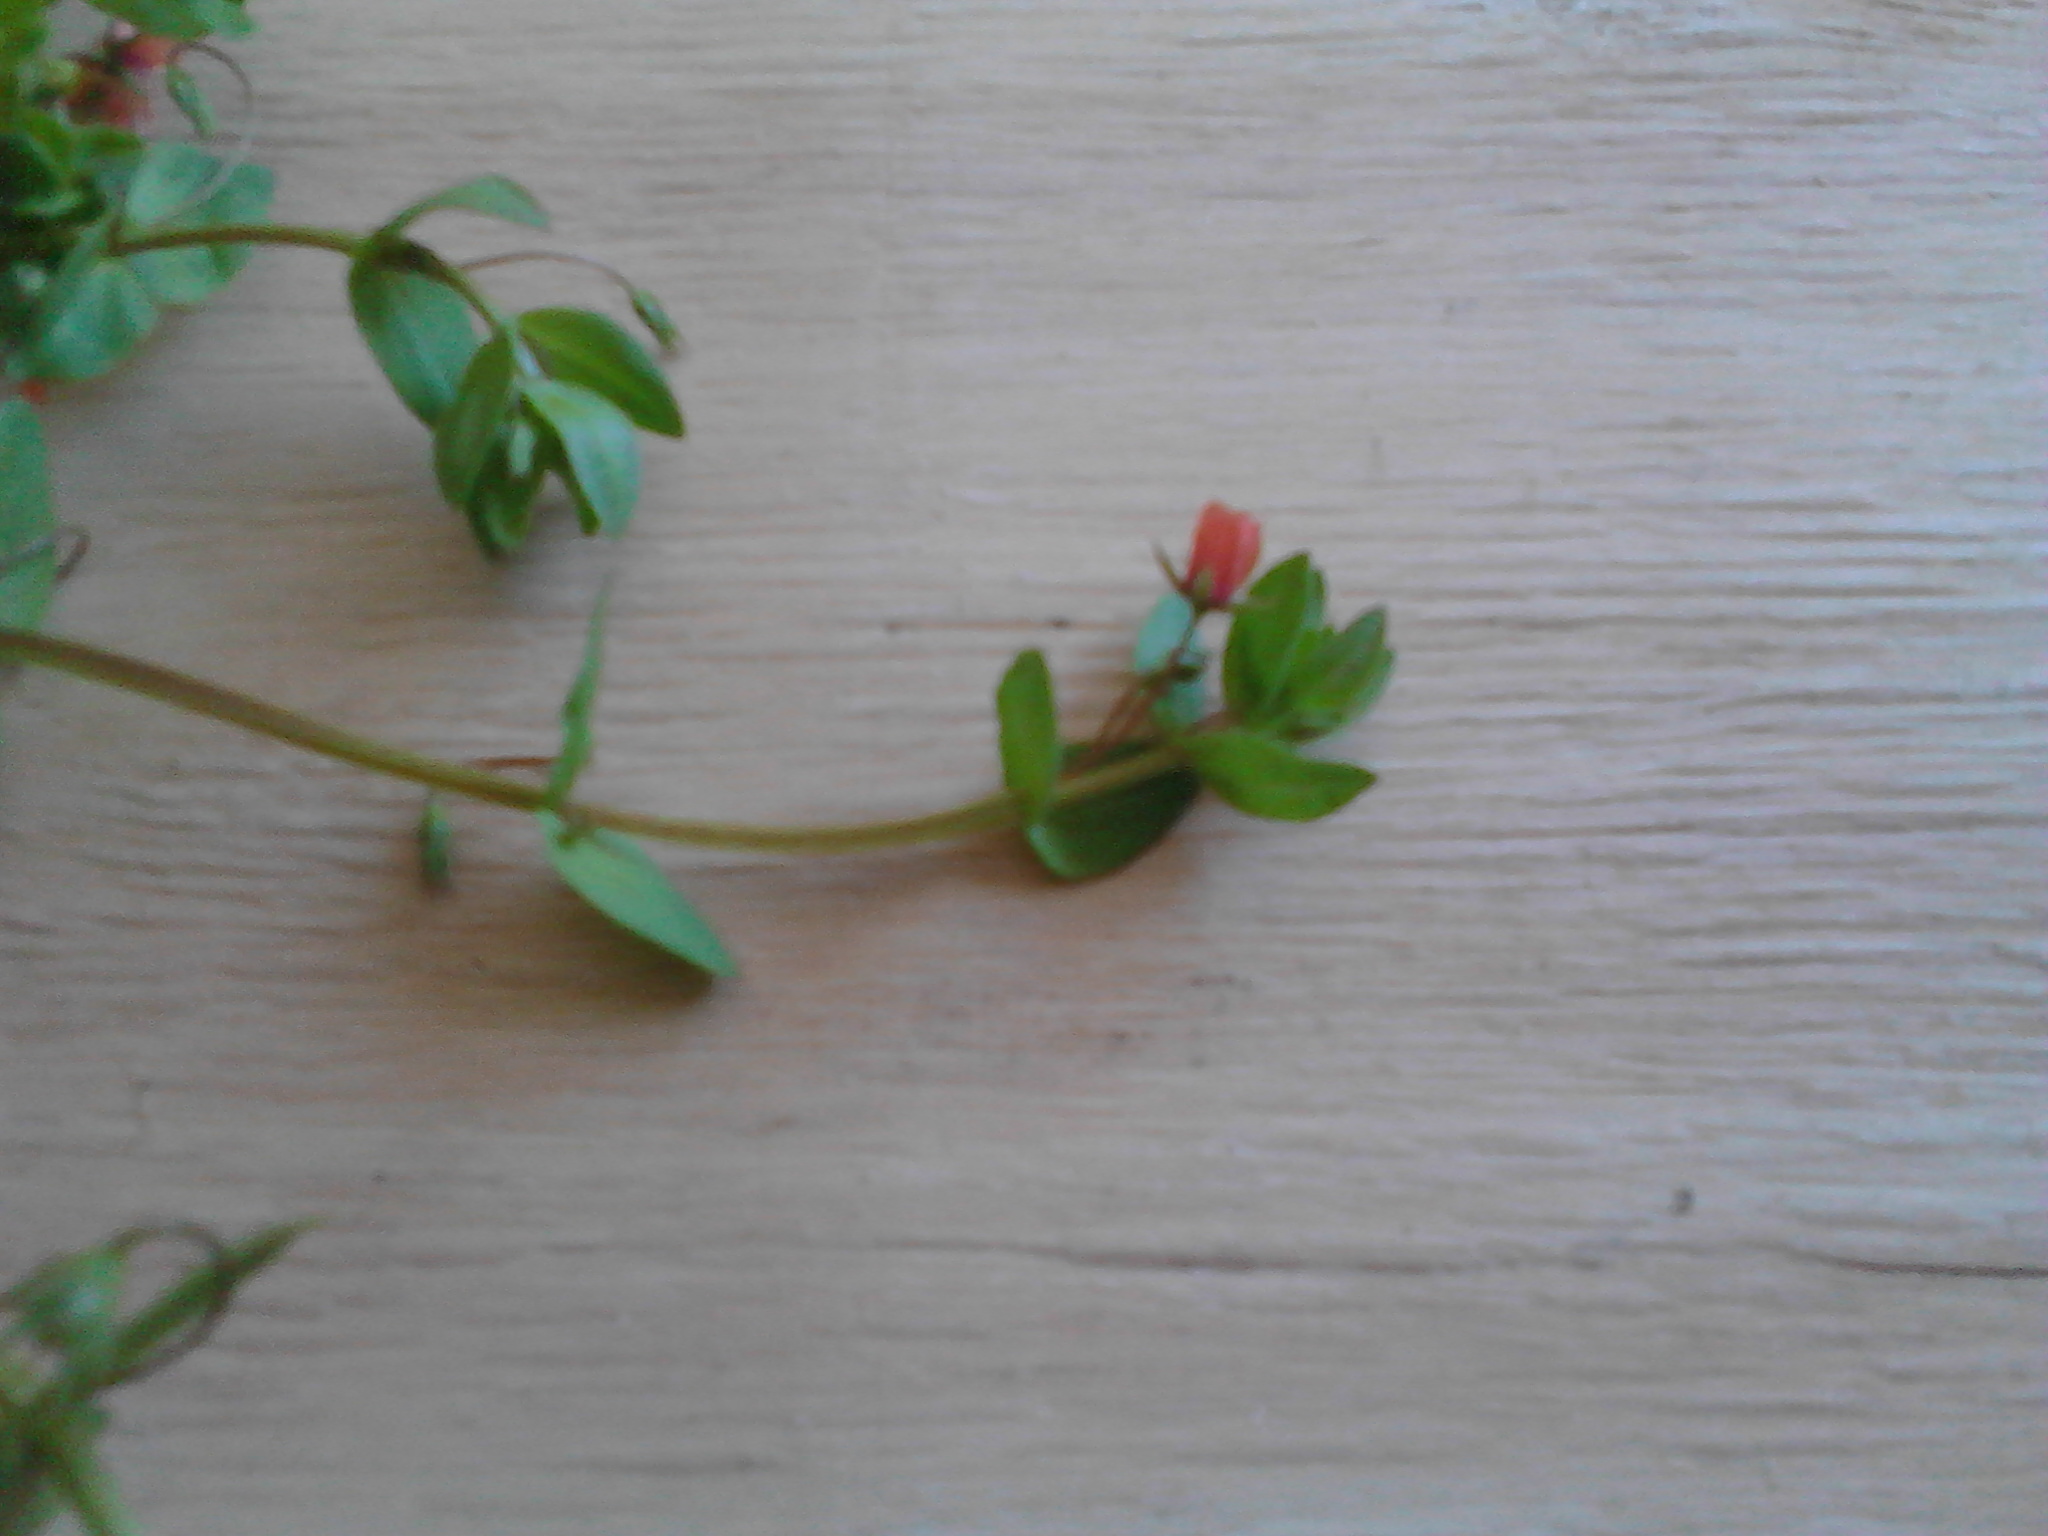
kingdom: Plantae
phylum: Tracheophyta
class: Magnoliopsida
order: Ericales
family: Primulaceae
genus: Lysimachia
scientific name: Lysimachia arvensis
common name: Scarlet pimpernel
